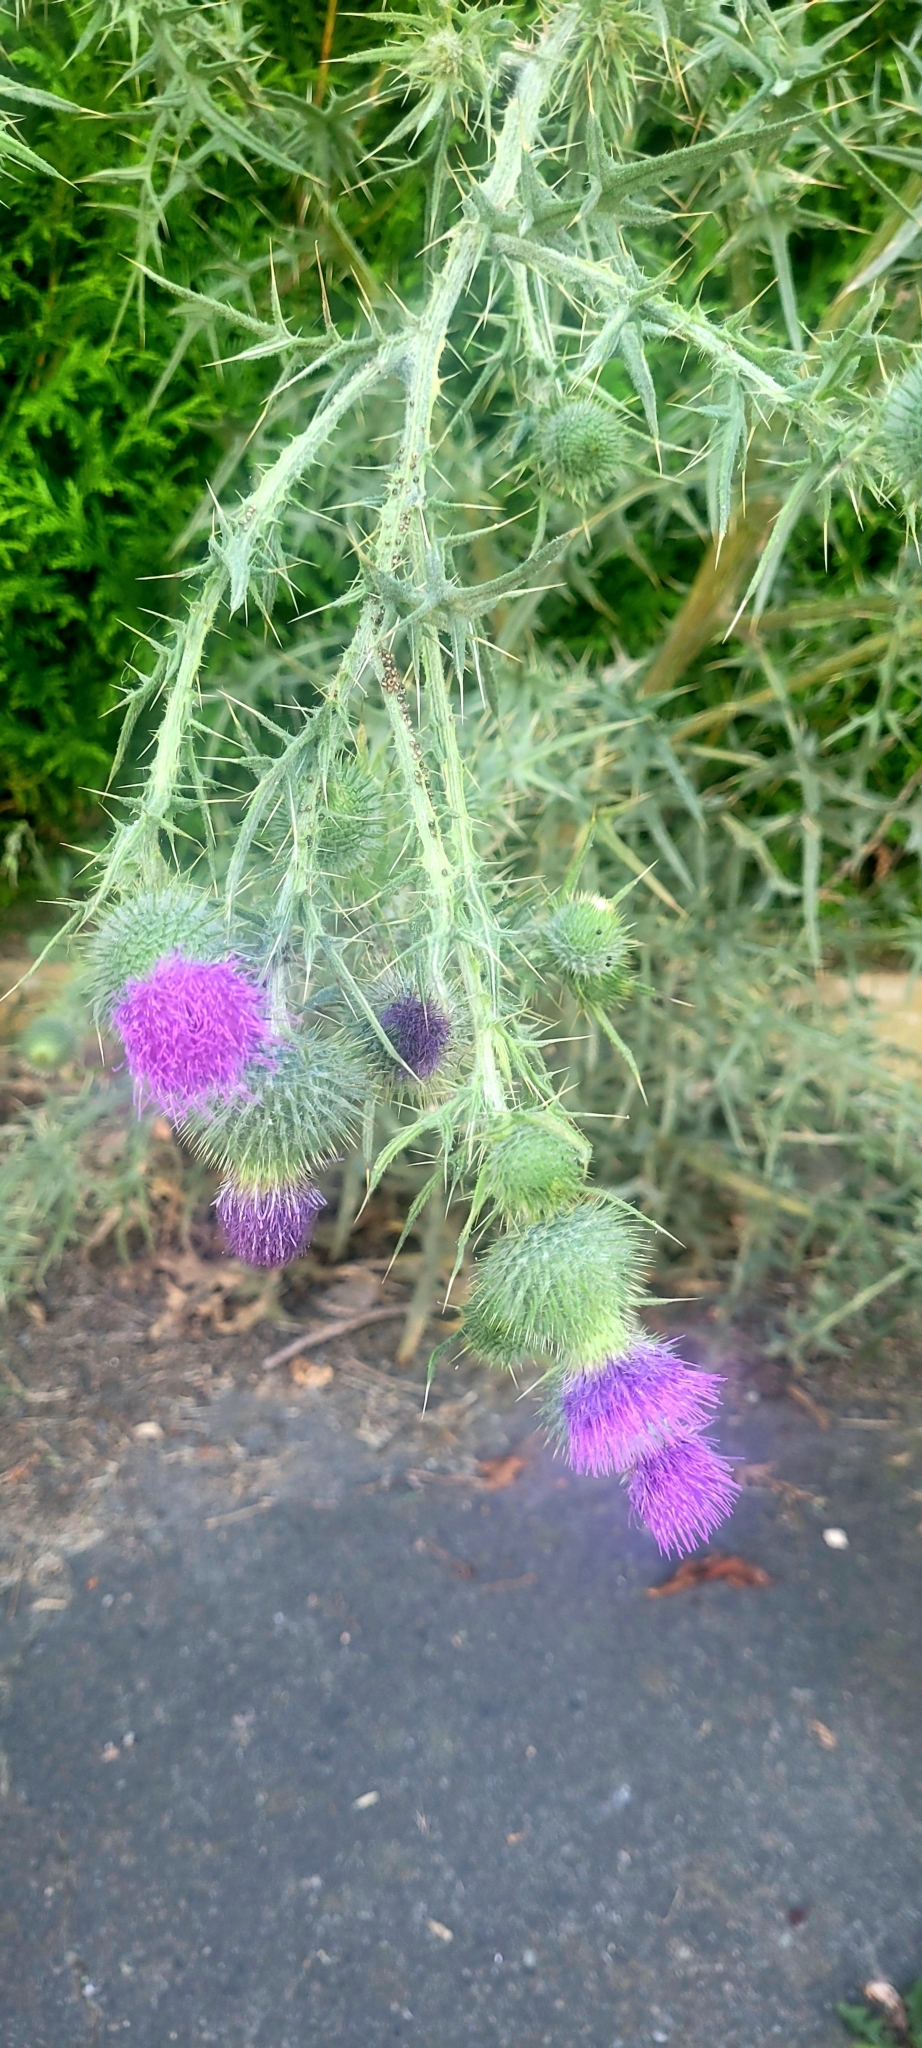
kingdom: Plantae
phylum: Tracheophyta
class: Magnoliopsida
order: Asterales
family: Asteraceae
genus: Cirsium
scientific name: Cirsium vulgare
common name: Bull thistle
